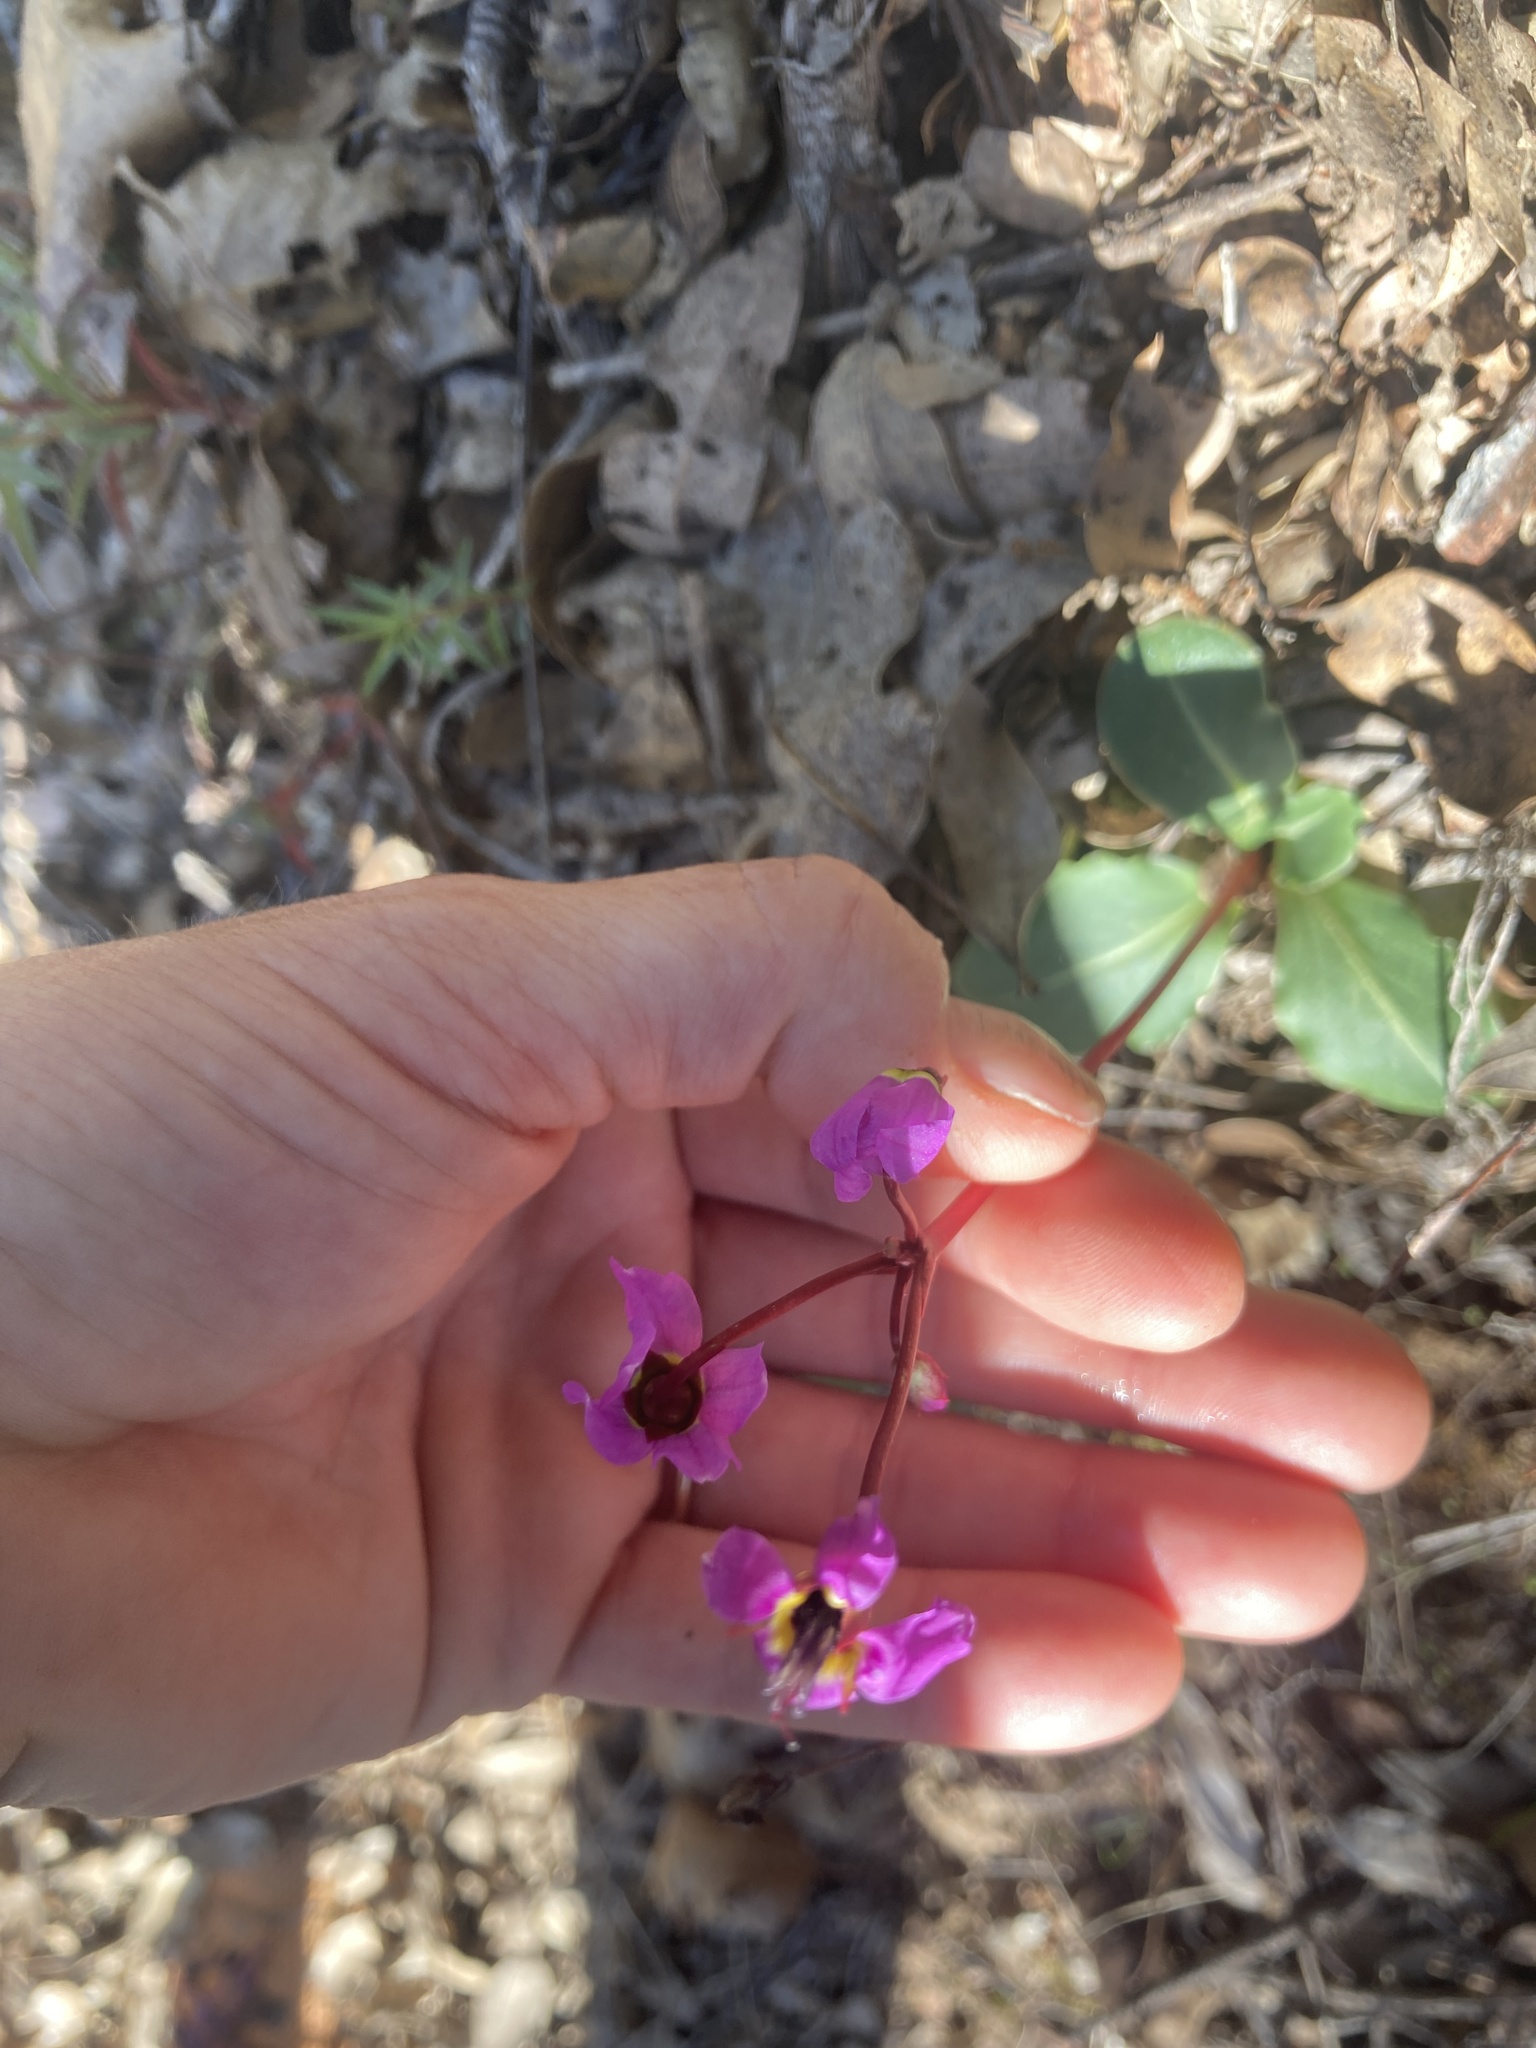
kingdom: Plantae
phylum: Tracheophyta
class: Magnoliopsida
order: Ericales
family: Primulaceae
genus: Dodecatheon
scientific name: Dodecatheon hendersonii
